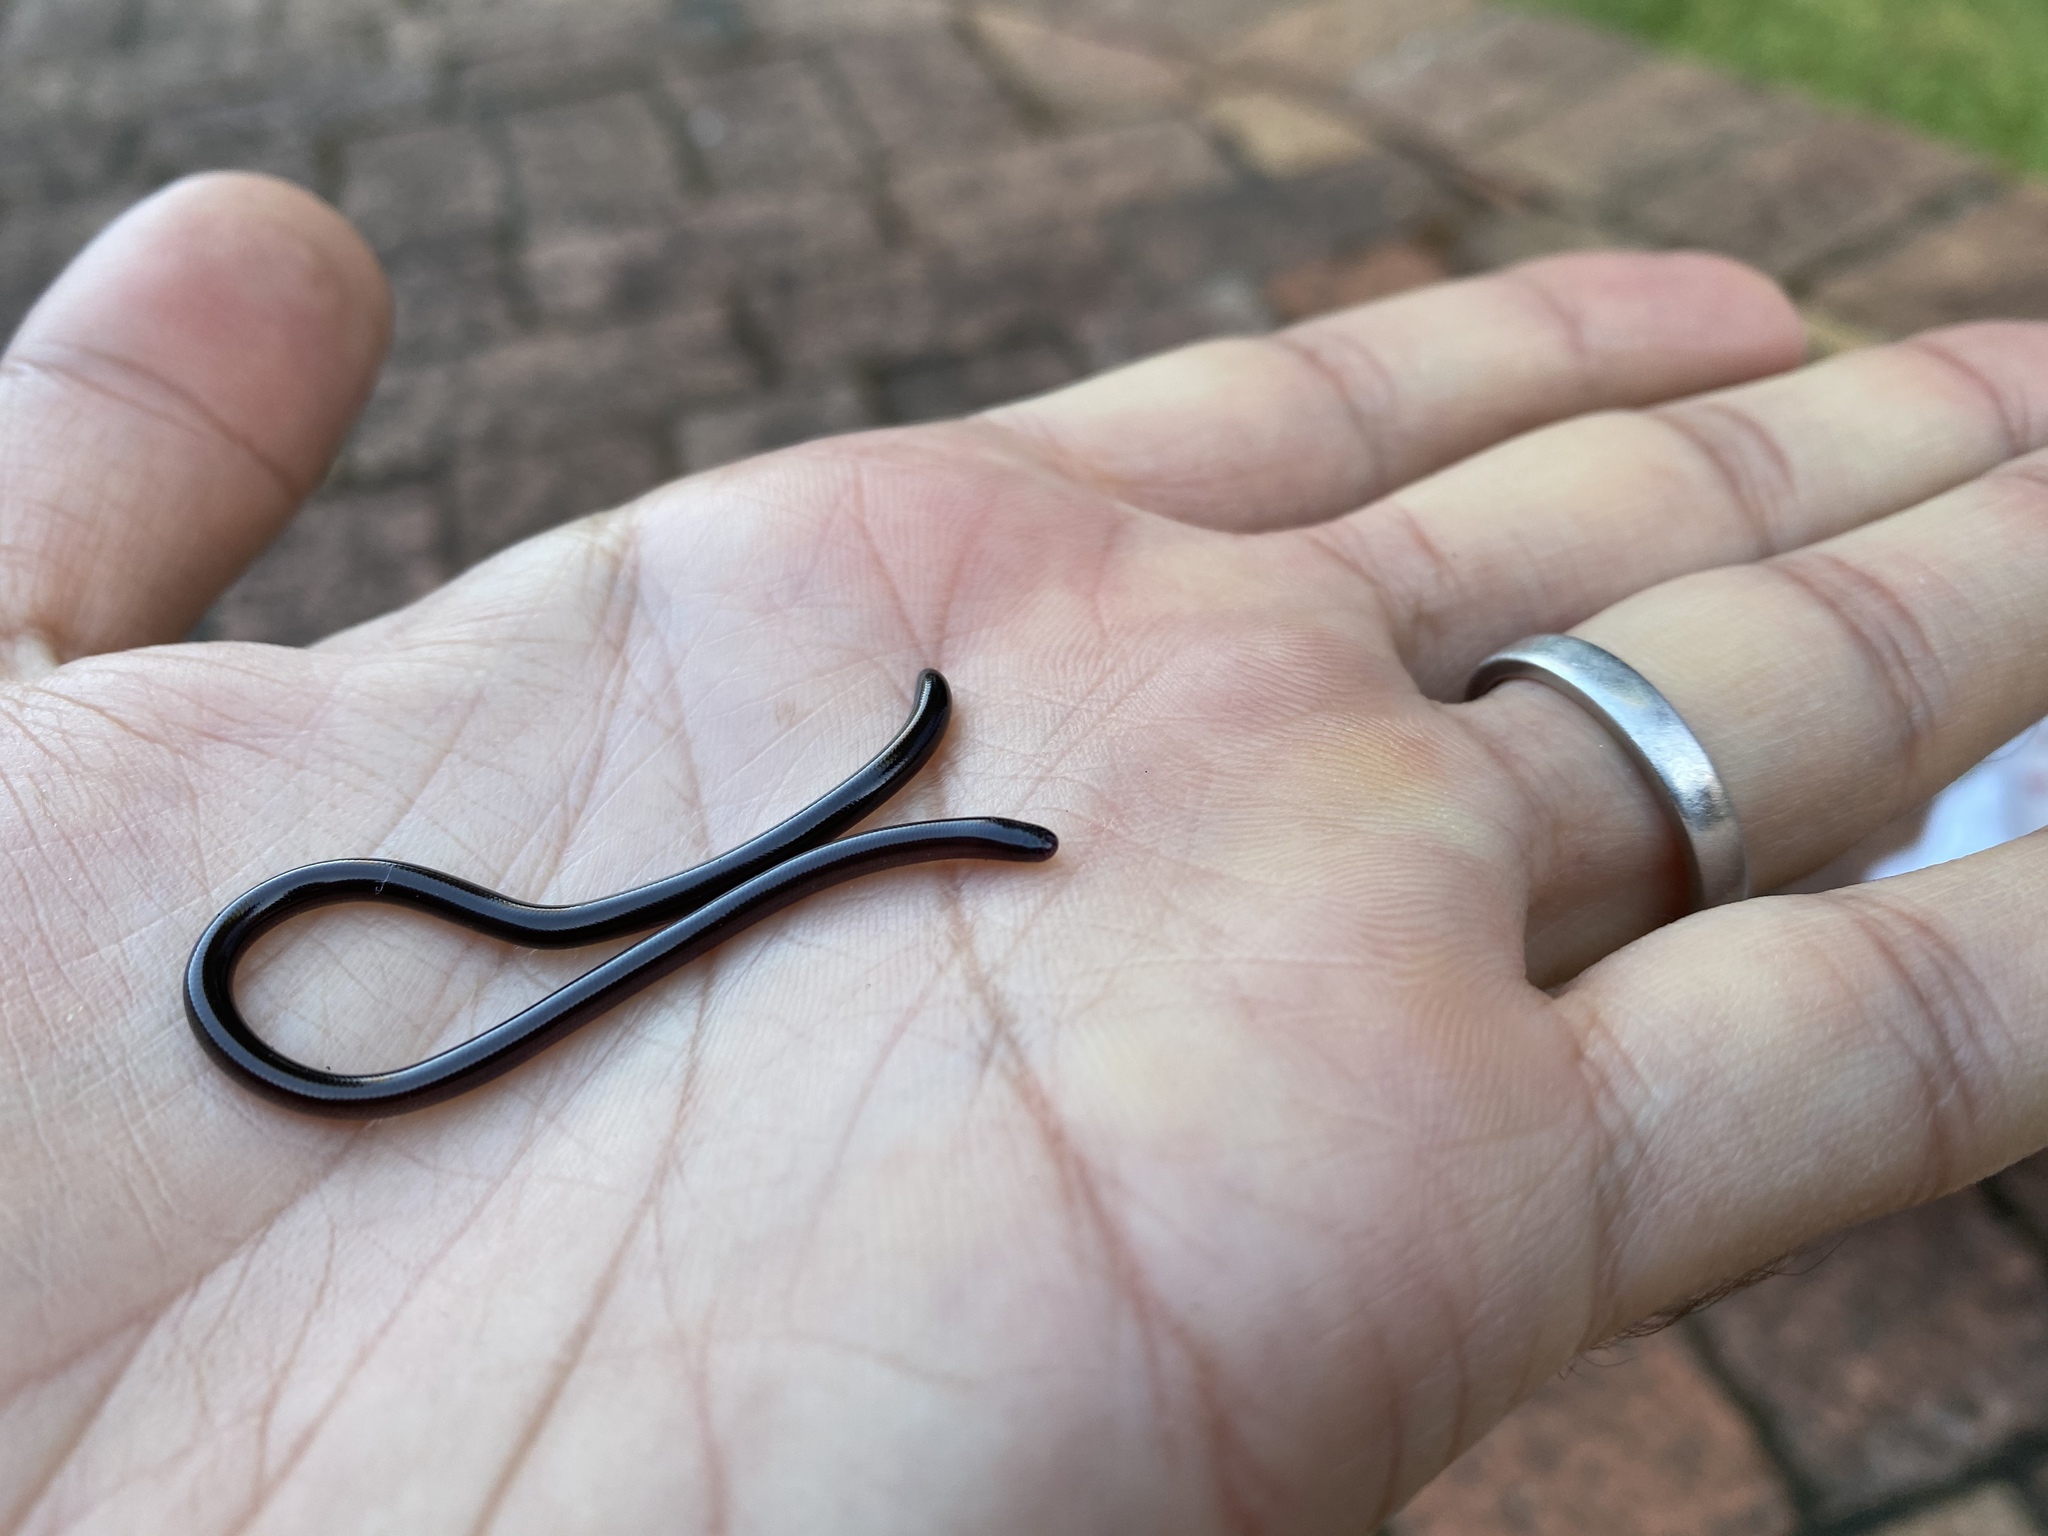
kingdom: Animalia
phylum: Chordata
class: Squamata
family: Typhlopidae
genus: Indotyphlops
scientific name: Indotyphlops braminus
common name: Brahminy blindsnake
